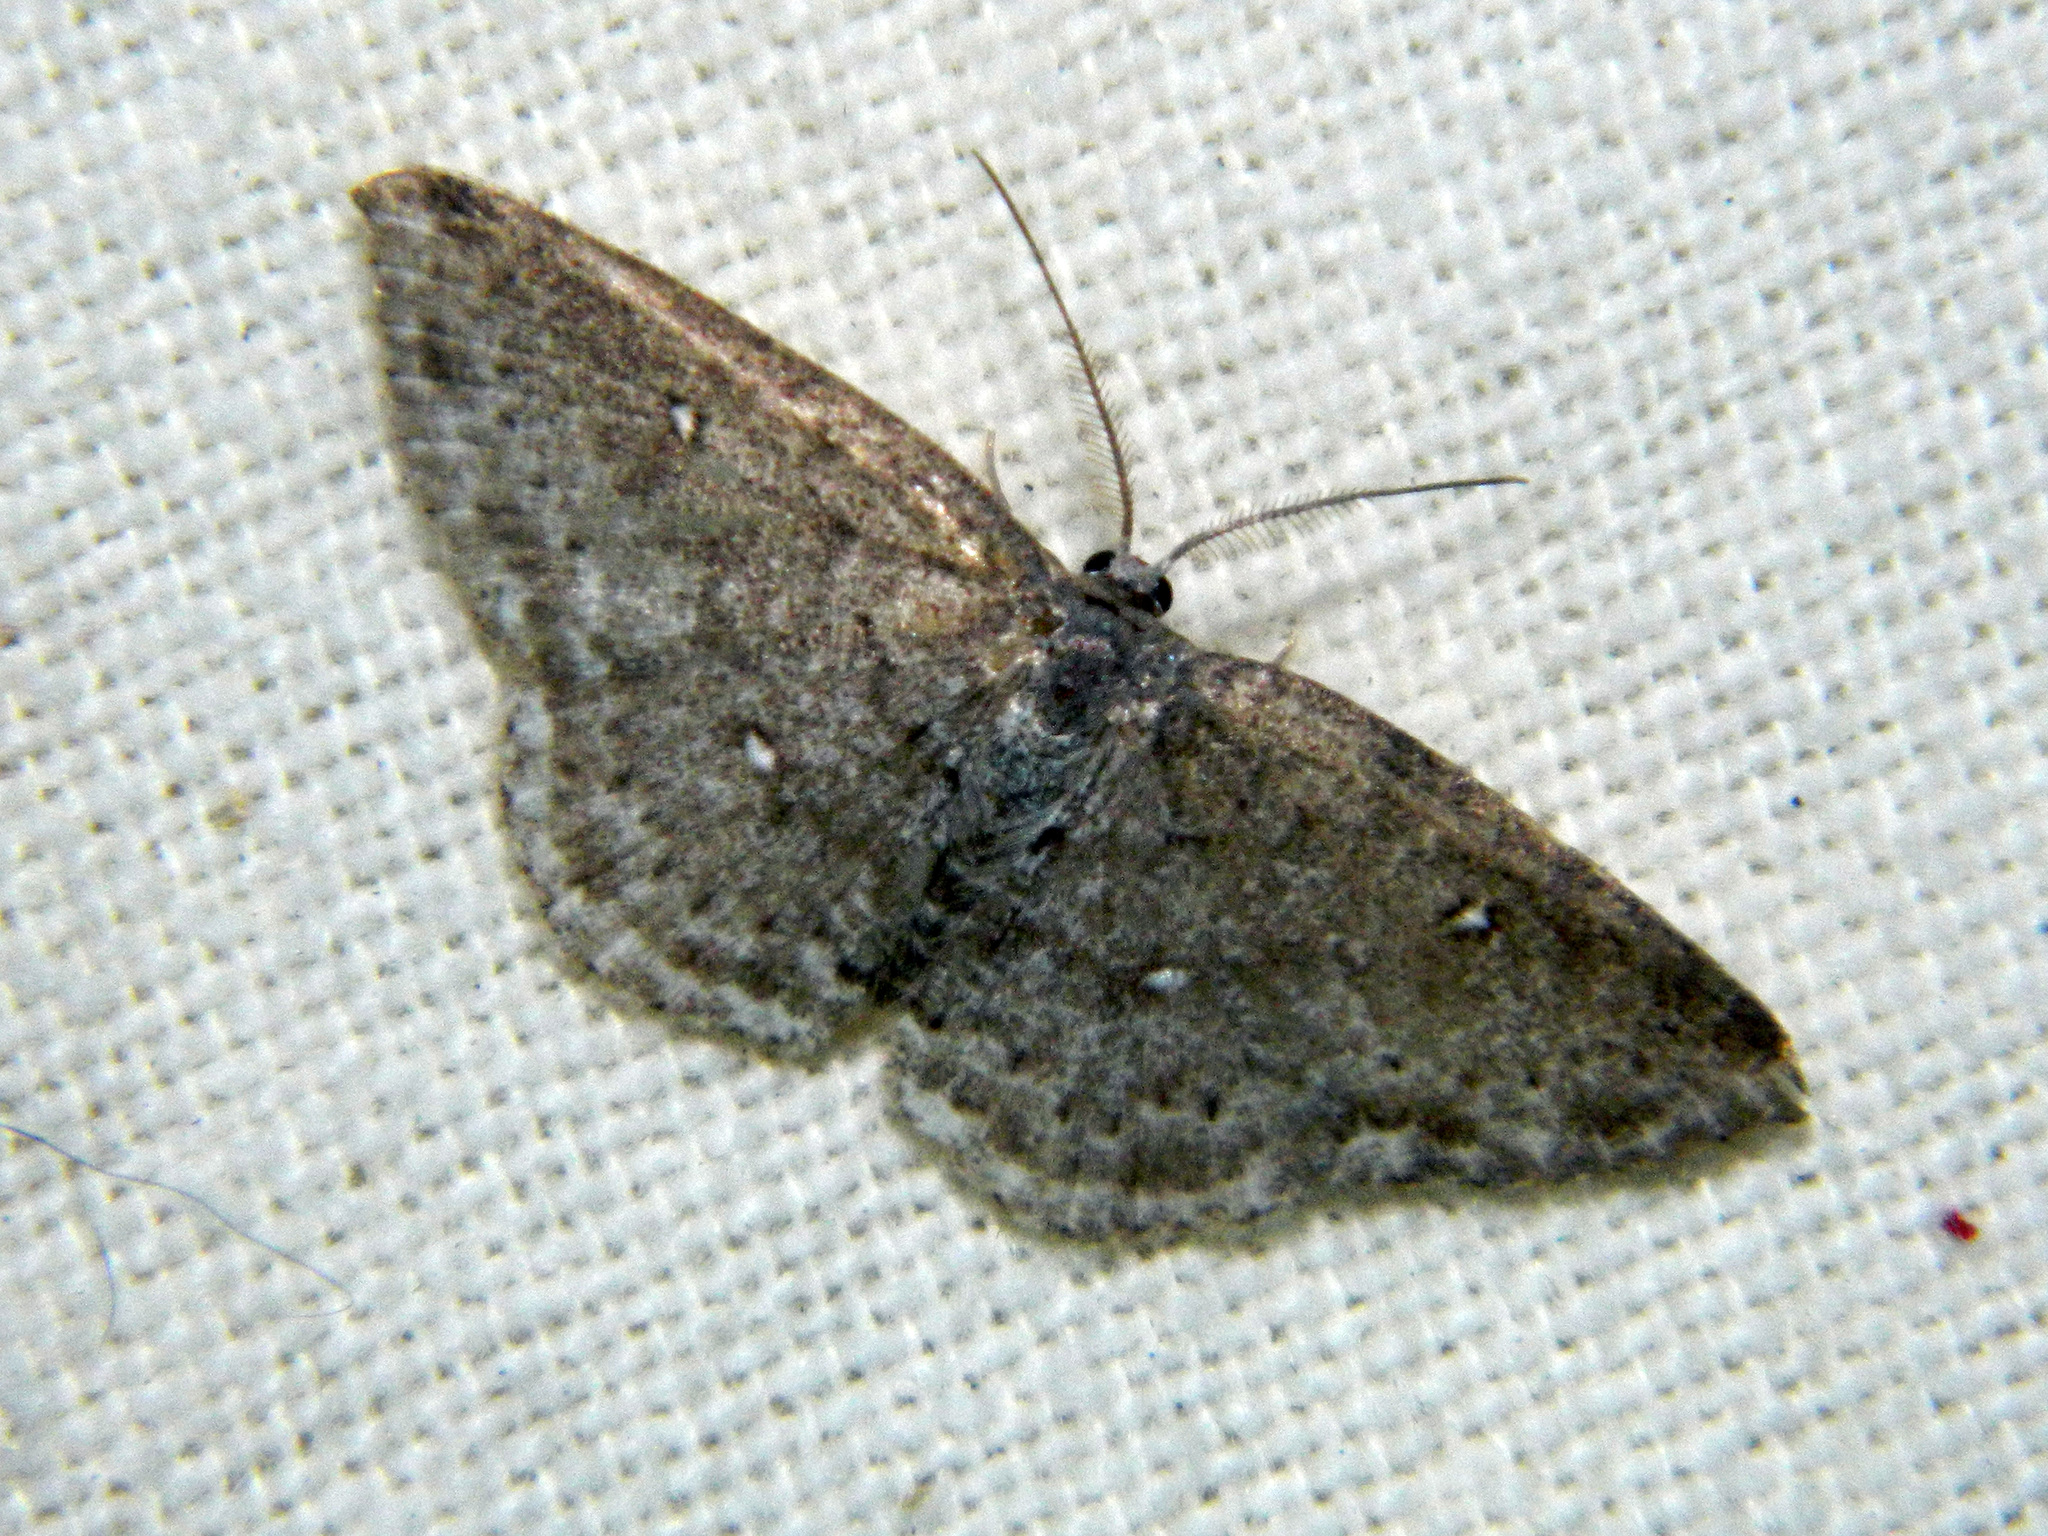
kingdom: Animalia
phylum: Arthropoda
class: Insecta
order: Lepidoptera
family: Geometridae
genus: Cyclophora
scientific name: Cyclophora pendulinaria
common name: Sweet fern geometer
